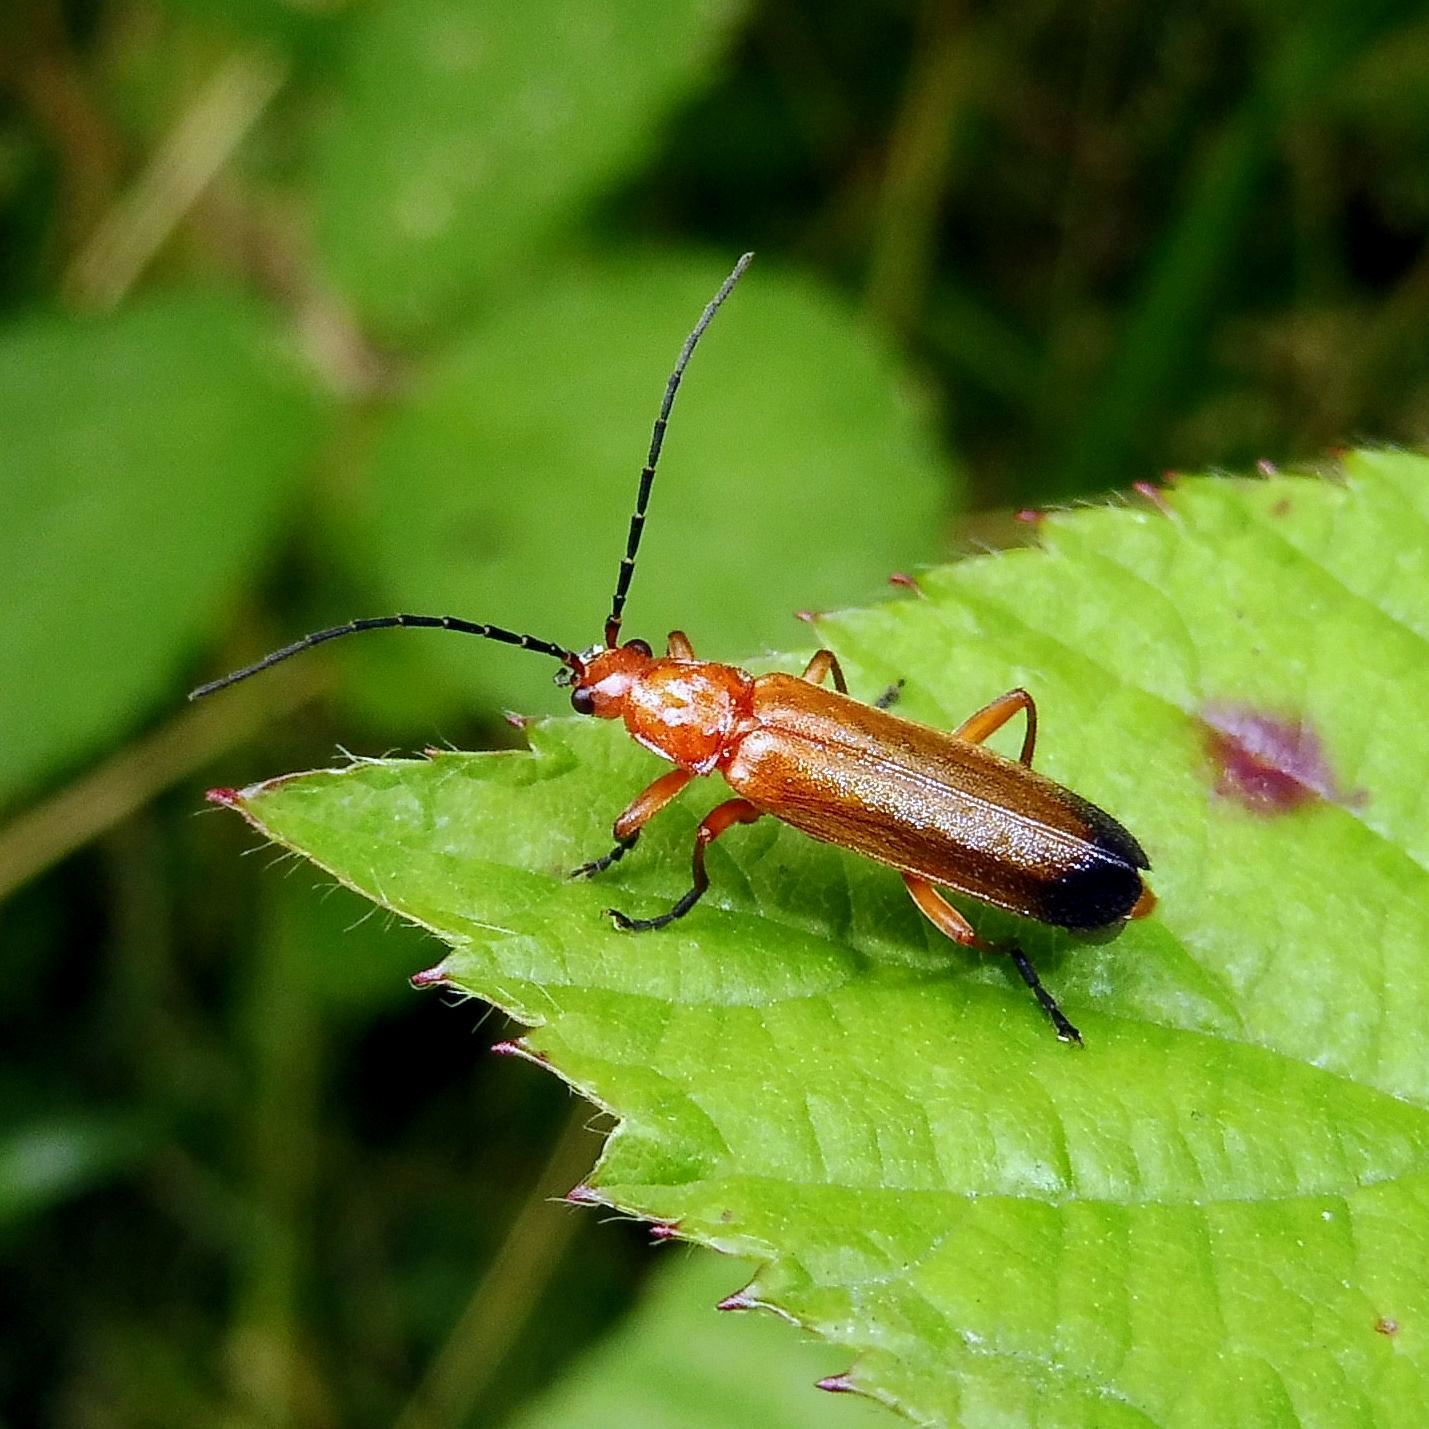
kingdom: Animalia
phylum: Arthropoda
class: Insecta
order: Coleoptera
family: Cantharidae
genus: Rhagonycha
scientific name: Rhagonycha fulva
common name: Common red soldier beetle
